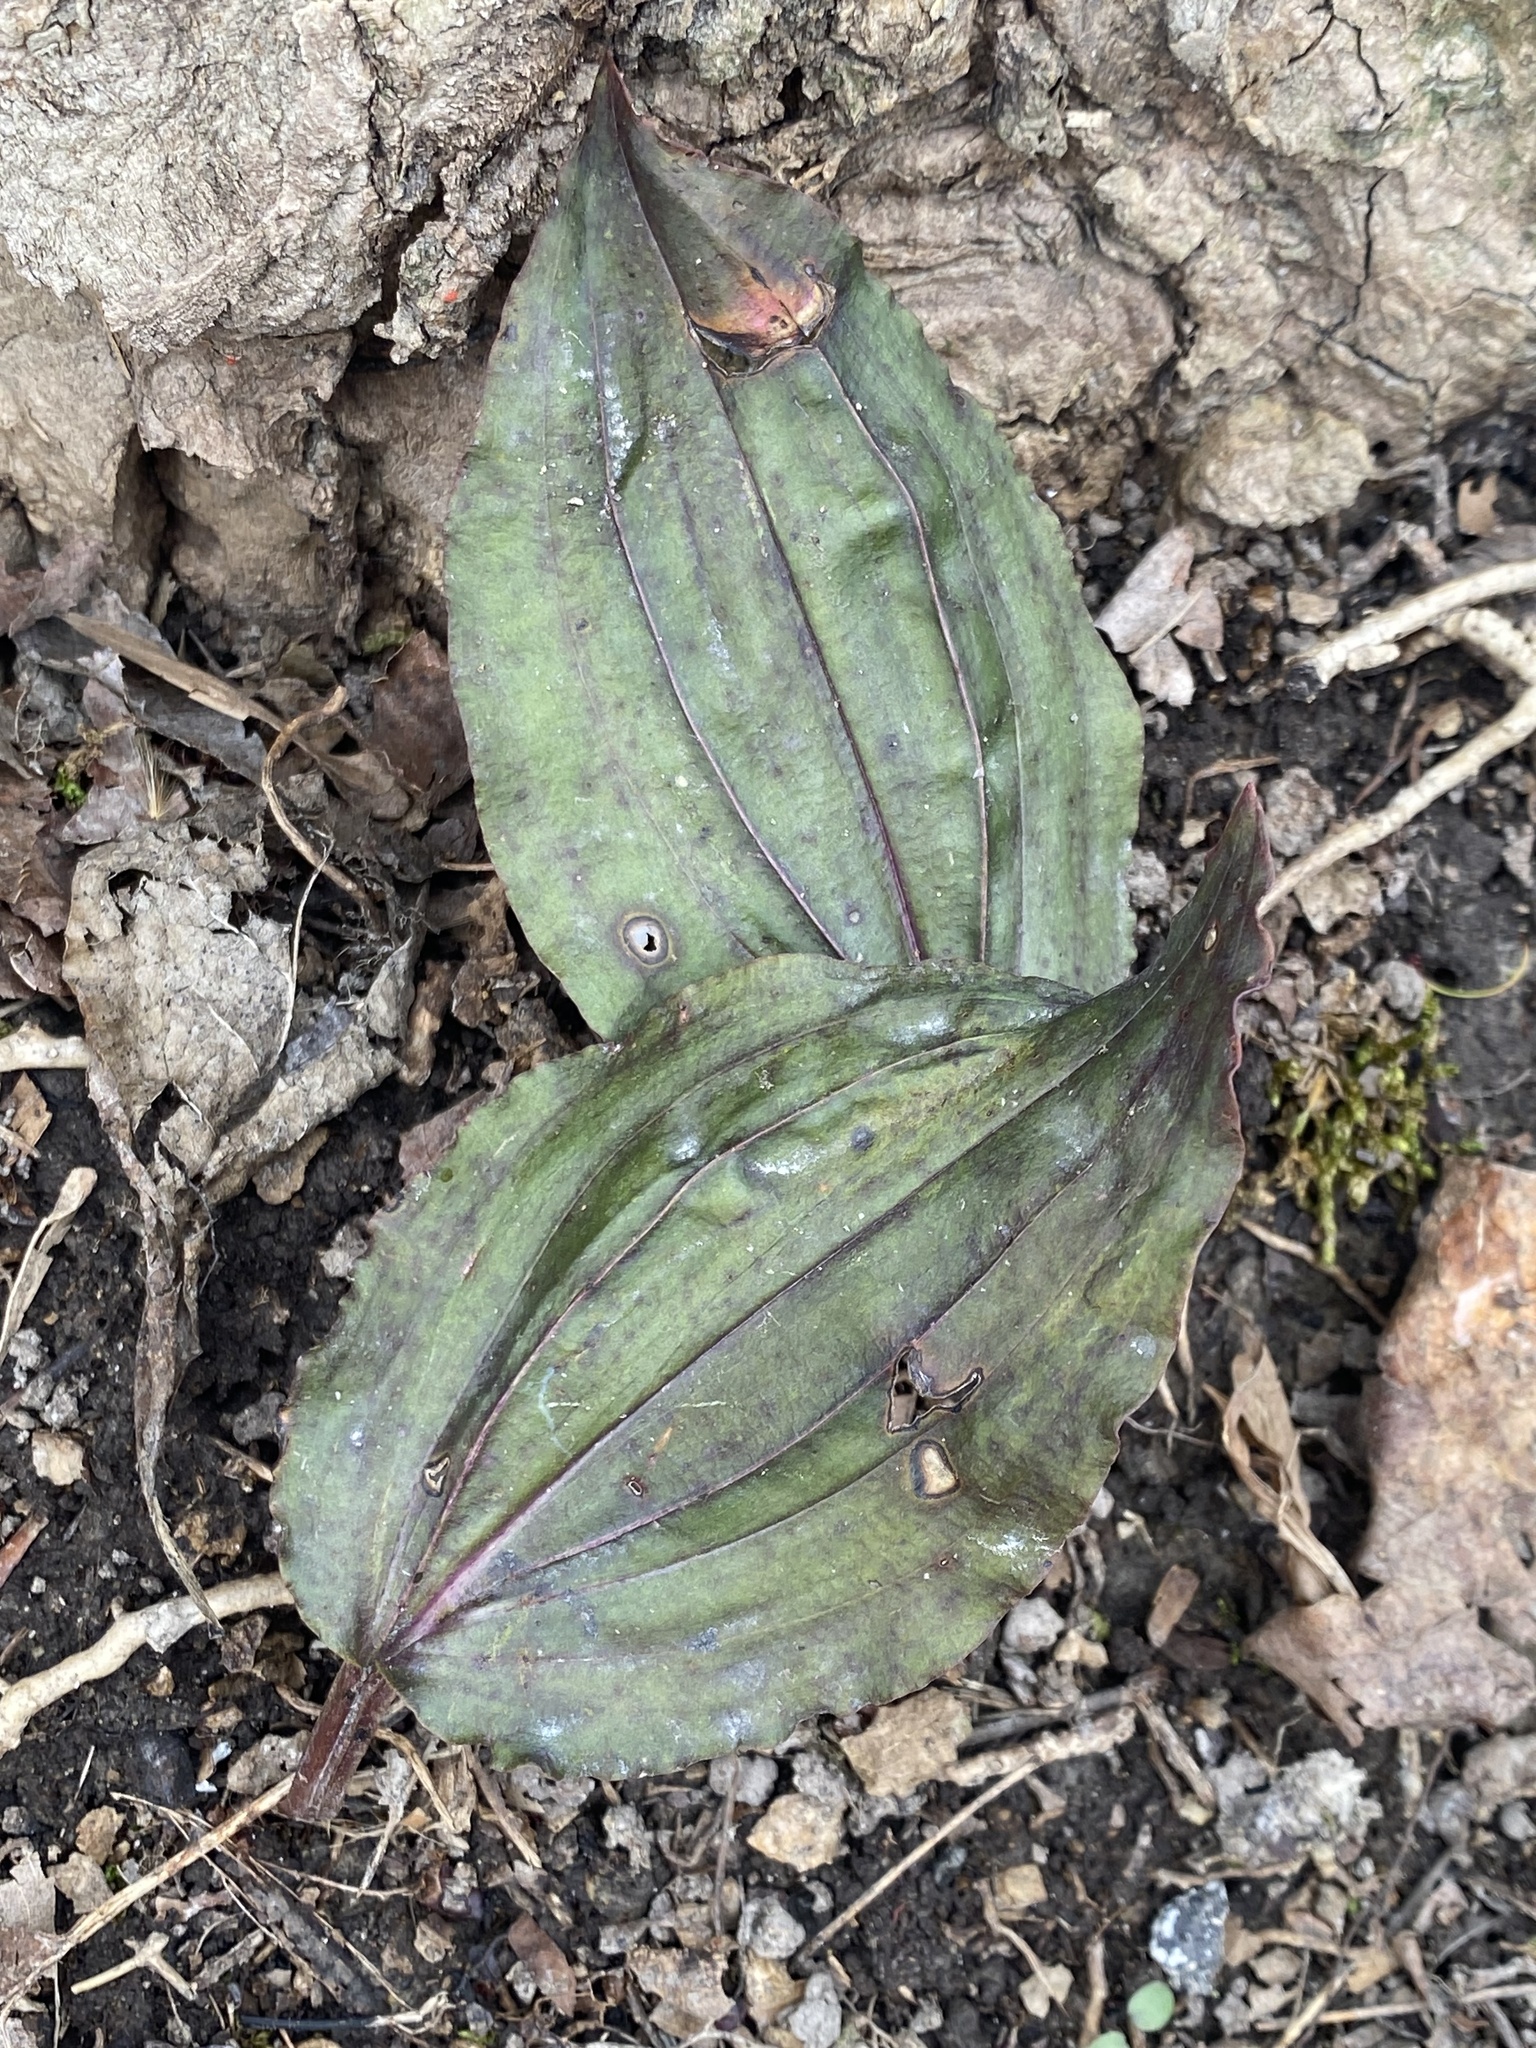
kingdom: Plantae
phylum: Tracheophyta
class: Liliopsida
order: Asparagales
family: Orchidaceae
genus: Tipularia
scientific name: Tipularia discolor
